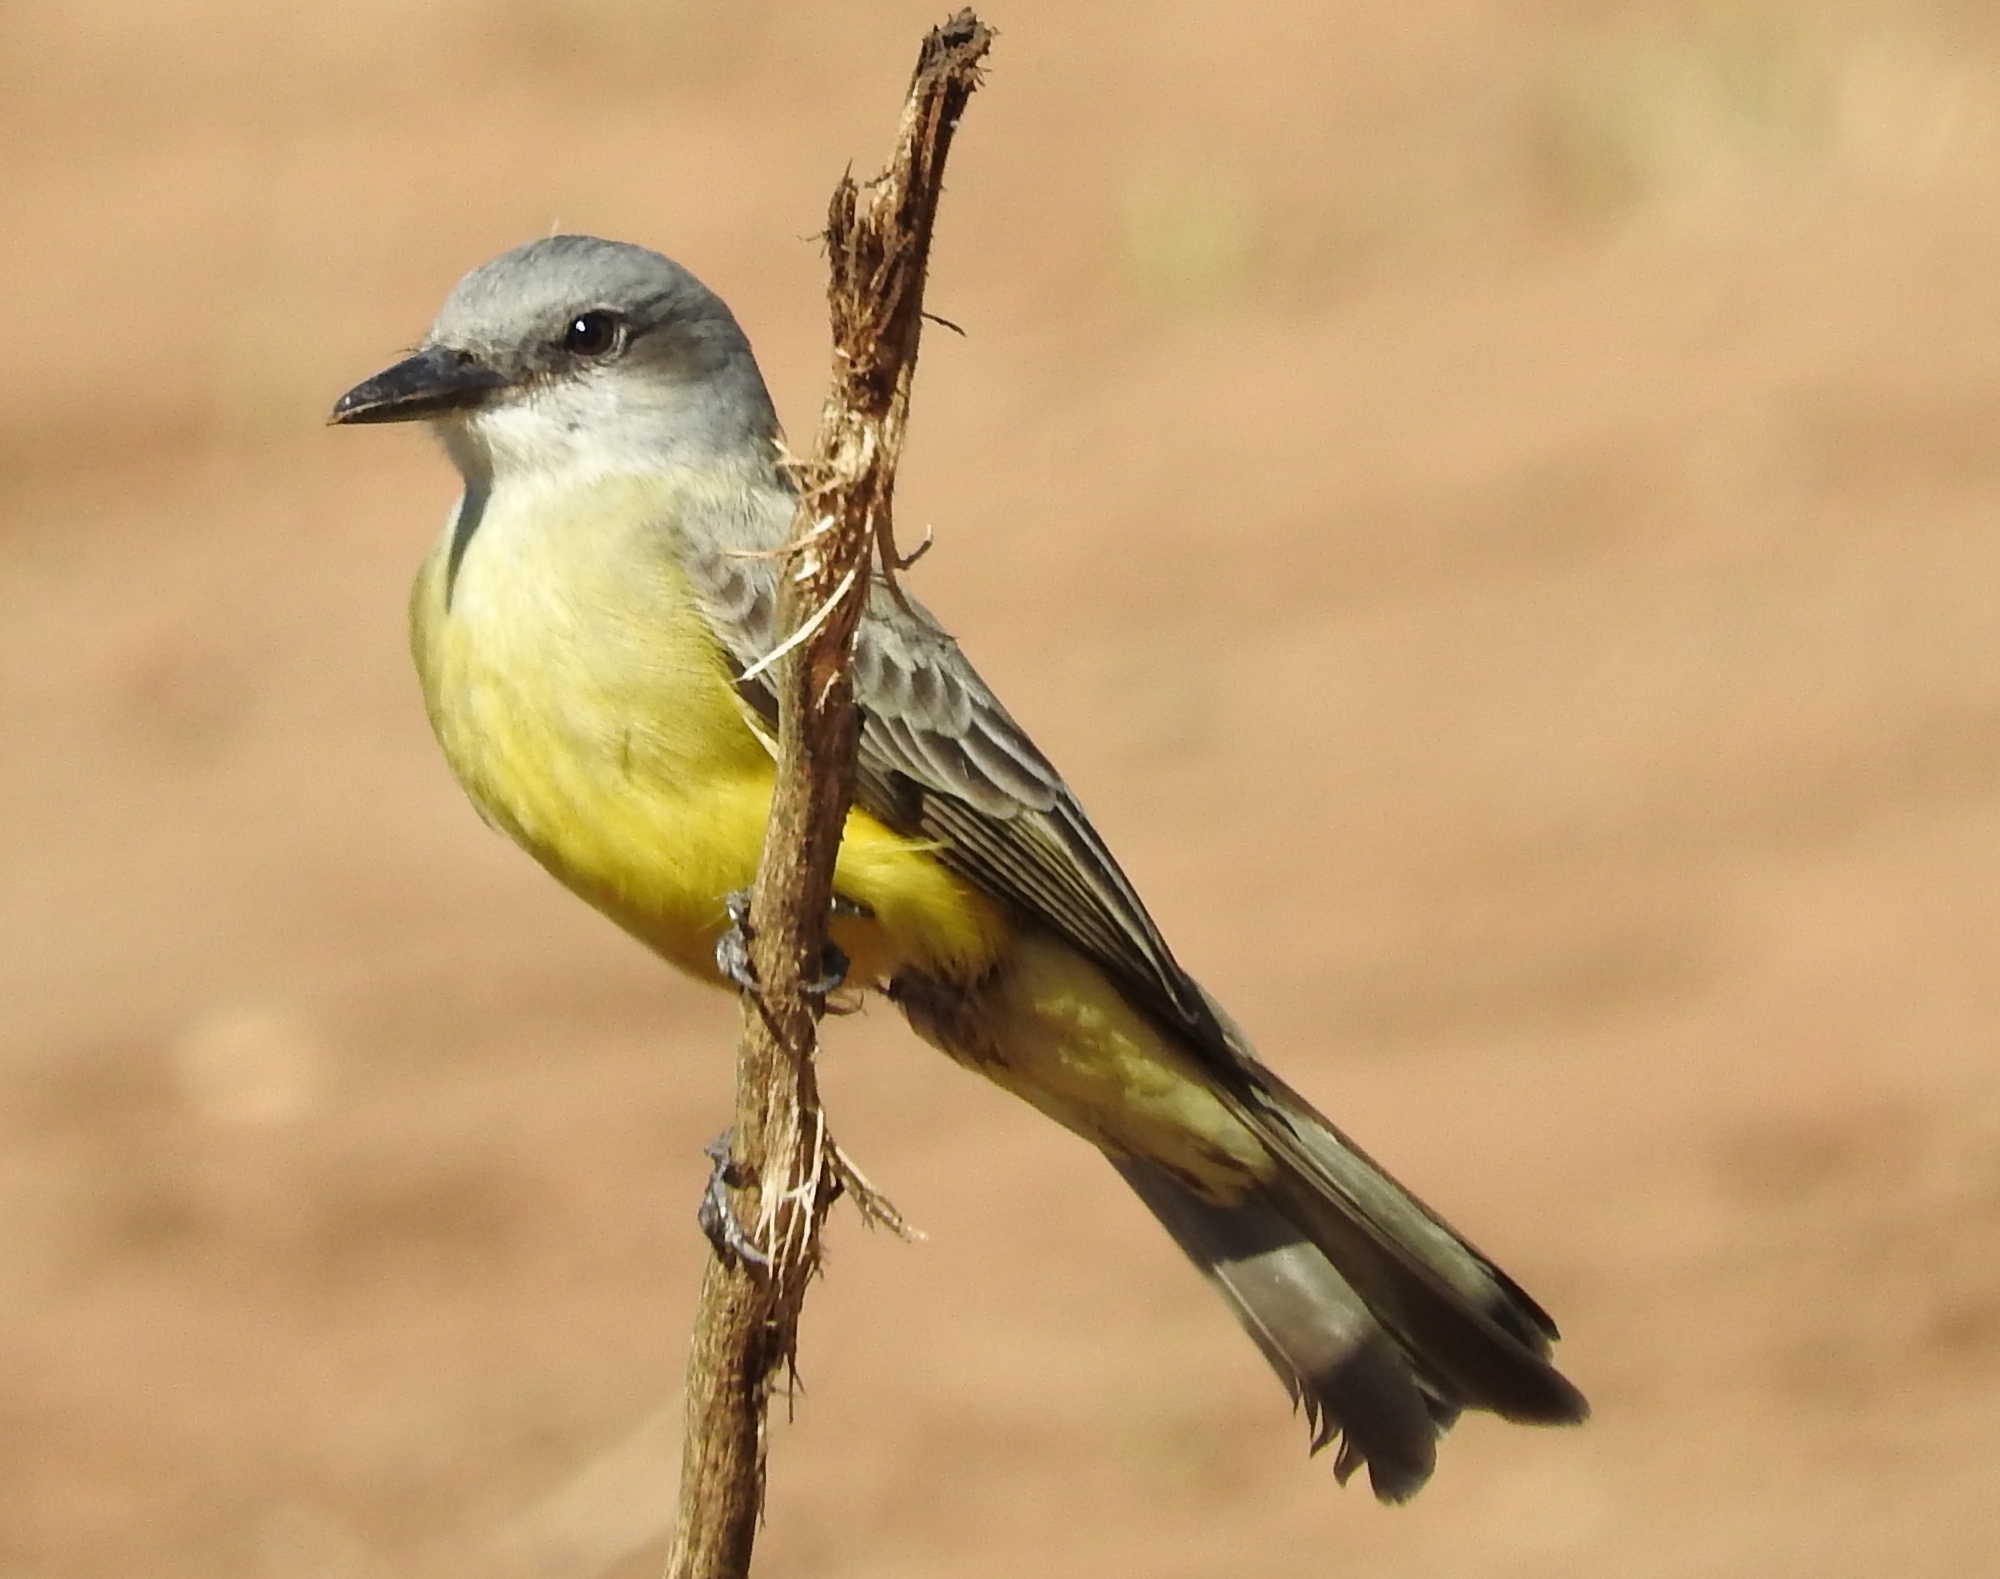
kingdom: Animalia
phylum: Chordata
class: Aves
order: Passeriformes
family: Tyrannidae
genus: Tyrannus
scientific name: Tyrannus melancholicus
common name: Tropical kingbird
